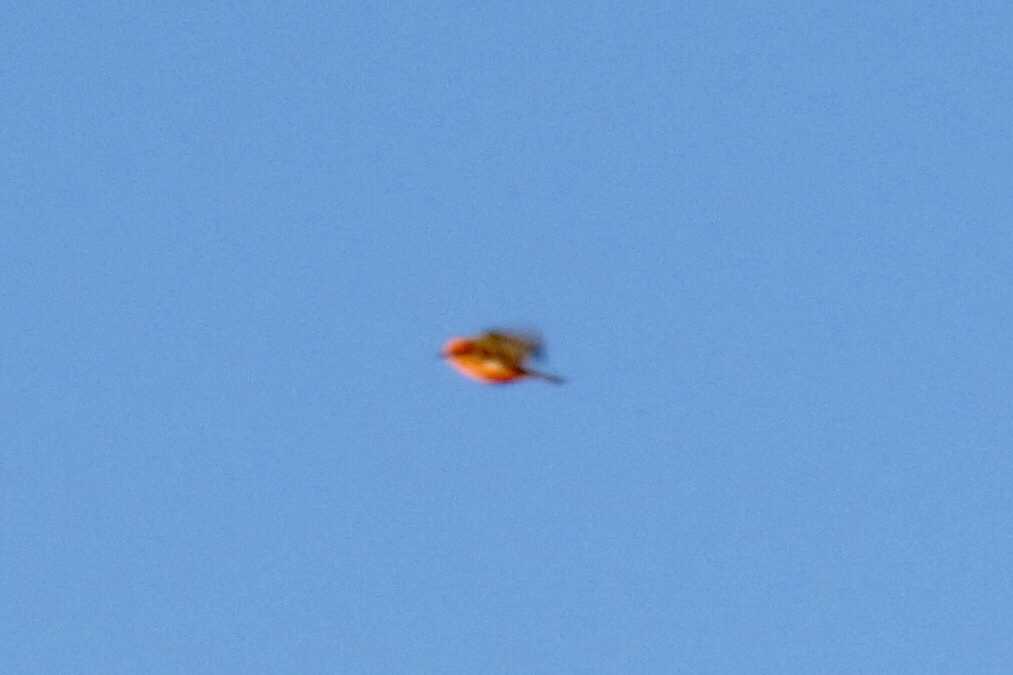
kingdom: Animalia
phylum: Chordata
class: Aves
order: Passeriformes
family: Tyrannidae
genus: Pyrocephalus
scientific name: Pyrocephalus rubinus
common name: Vermilion flycatcher
